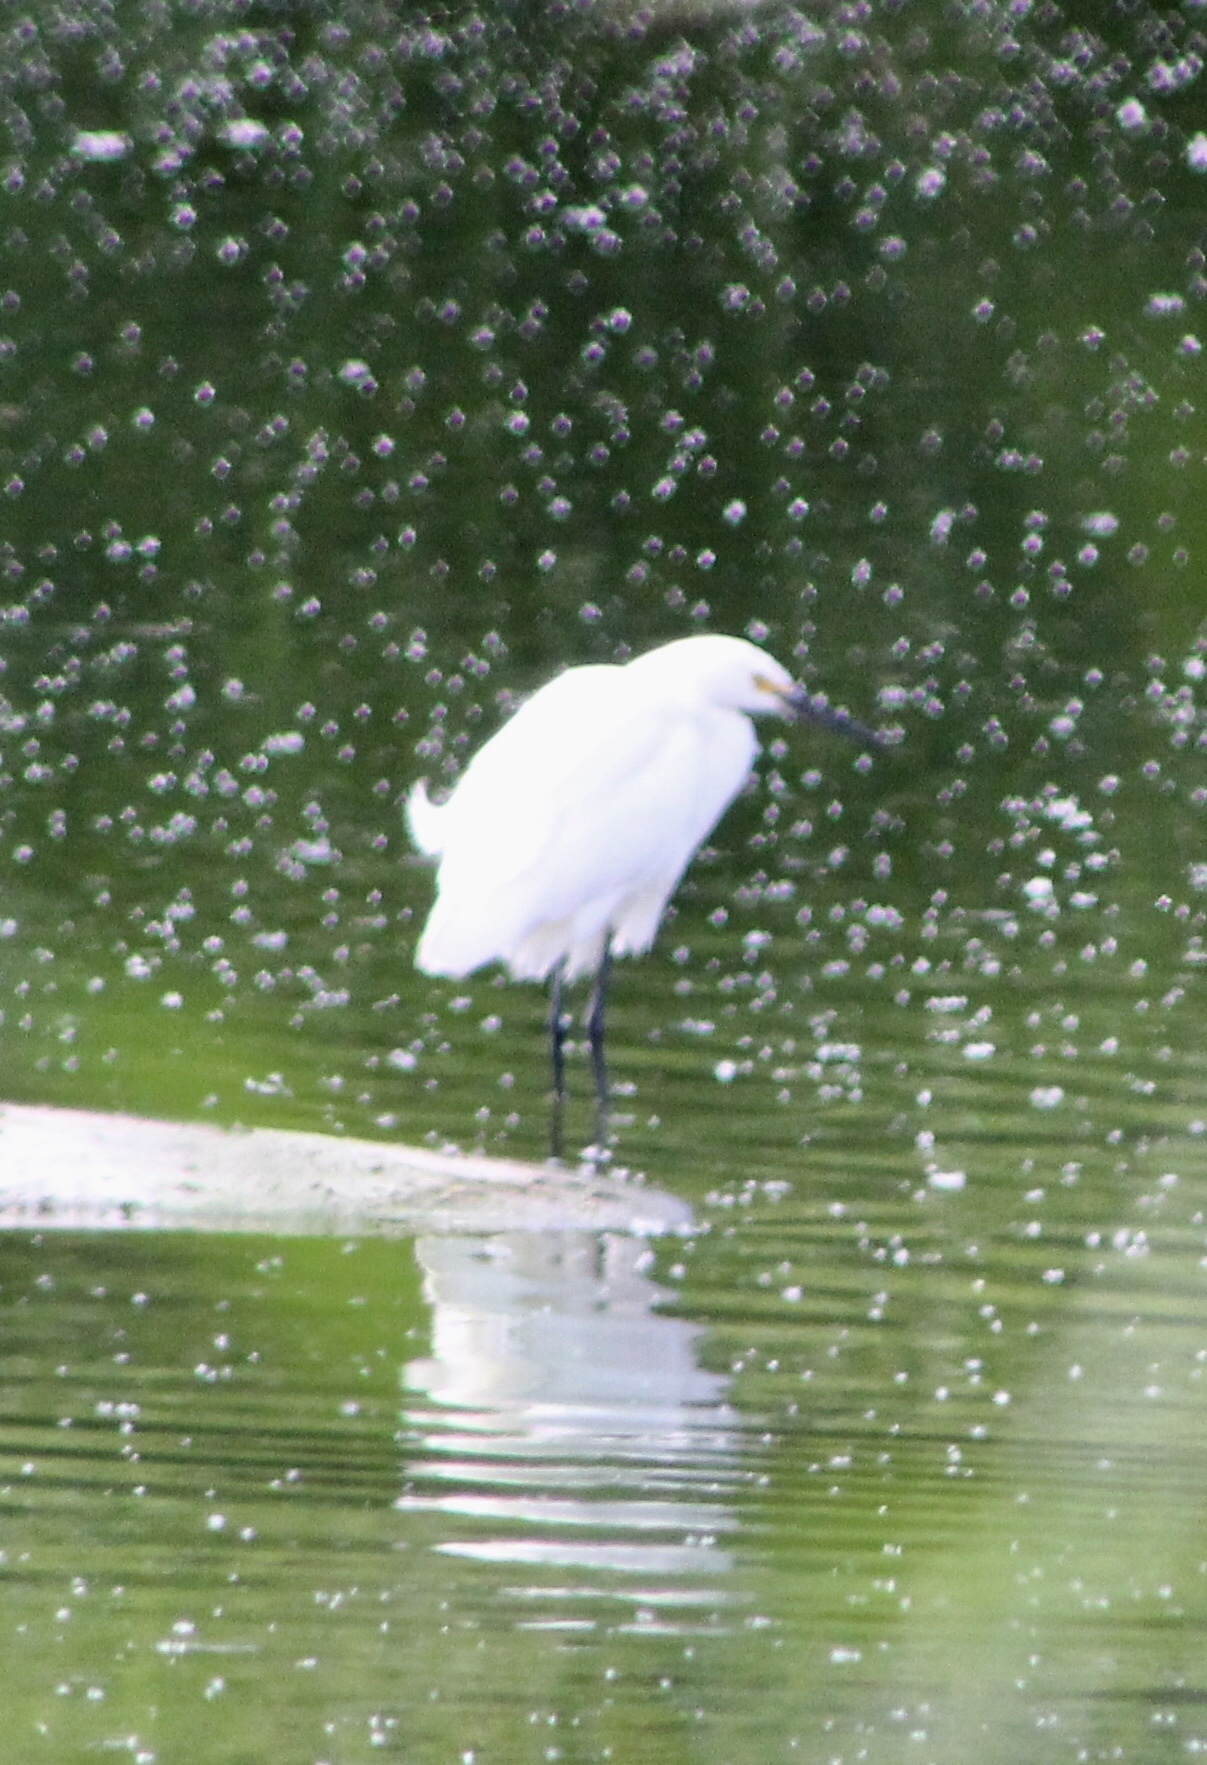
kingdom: Animalia
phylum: Chordata
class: Aves
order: Pelecaniformes
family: Ardeidae
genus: Egretta
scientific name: Egretta thula
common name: Snowy egret
